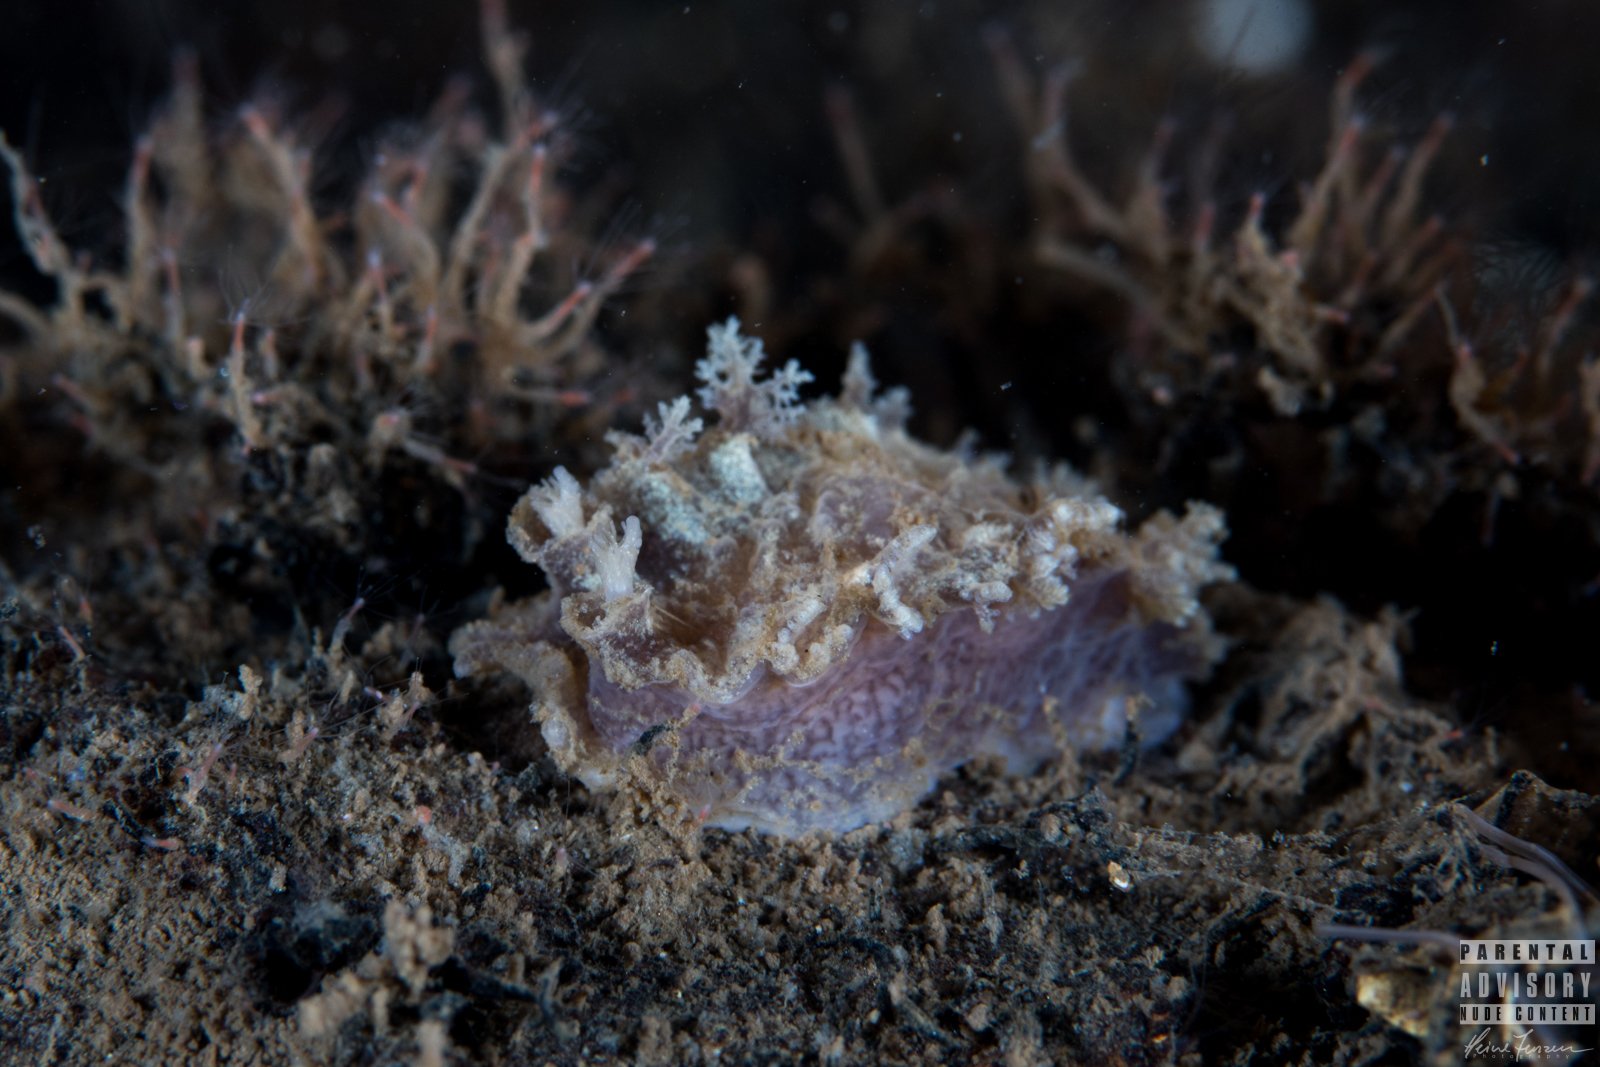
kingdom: Animalia
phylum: Mollusca
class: Gastropoda
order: Nudibranchia
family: Tritoniidae
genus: Duvaucelia
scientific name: Duvaucelia plebeia
